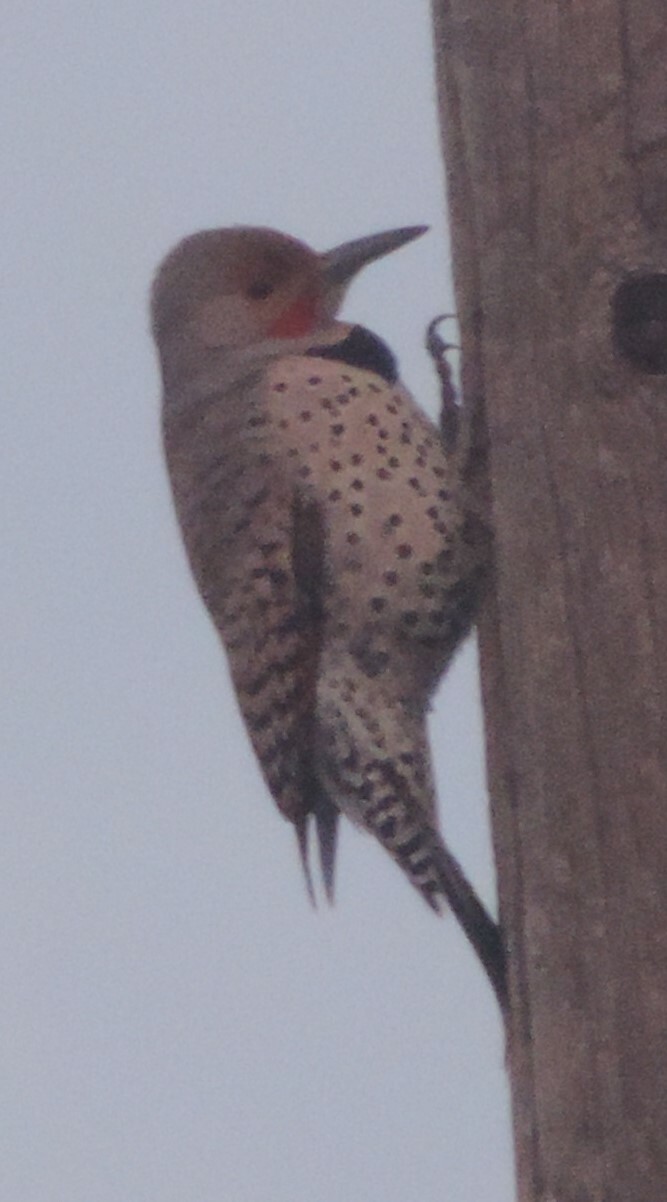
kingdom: Animalia
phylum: Chordata
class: Aves
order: Piciformes
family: Picidae
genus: Colaptes
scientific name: Colaptes auratus
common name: Northern flicker
